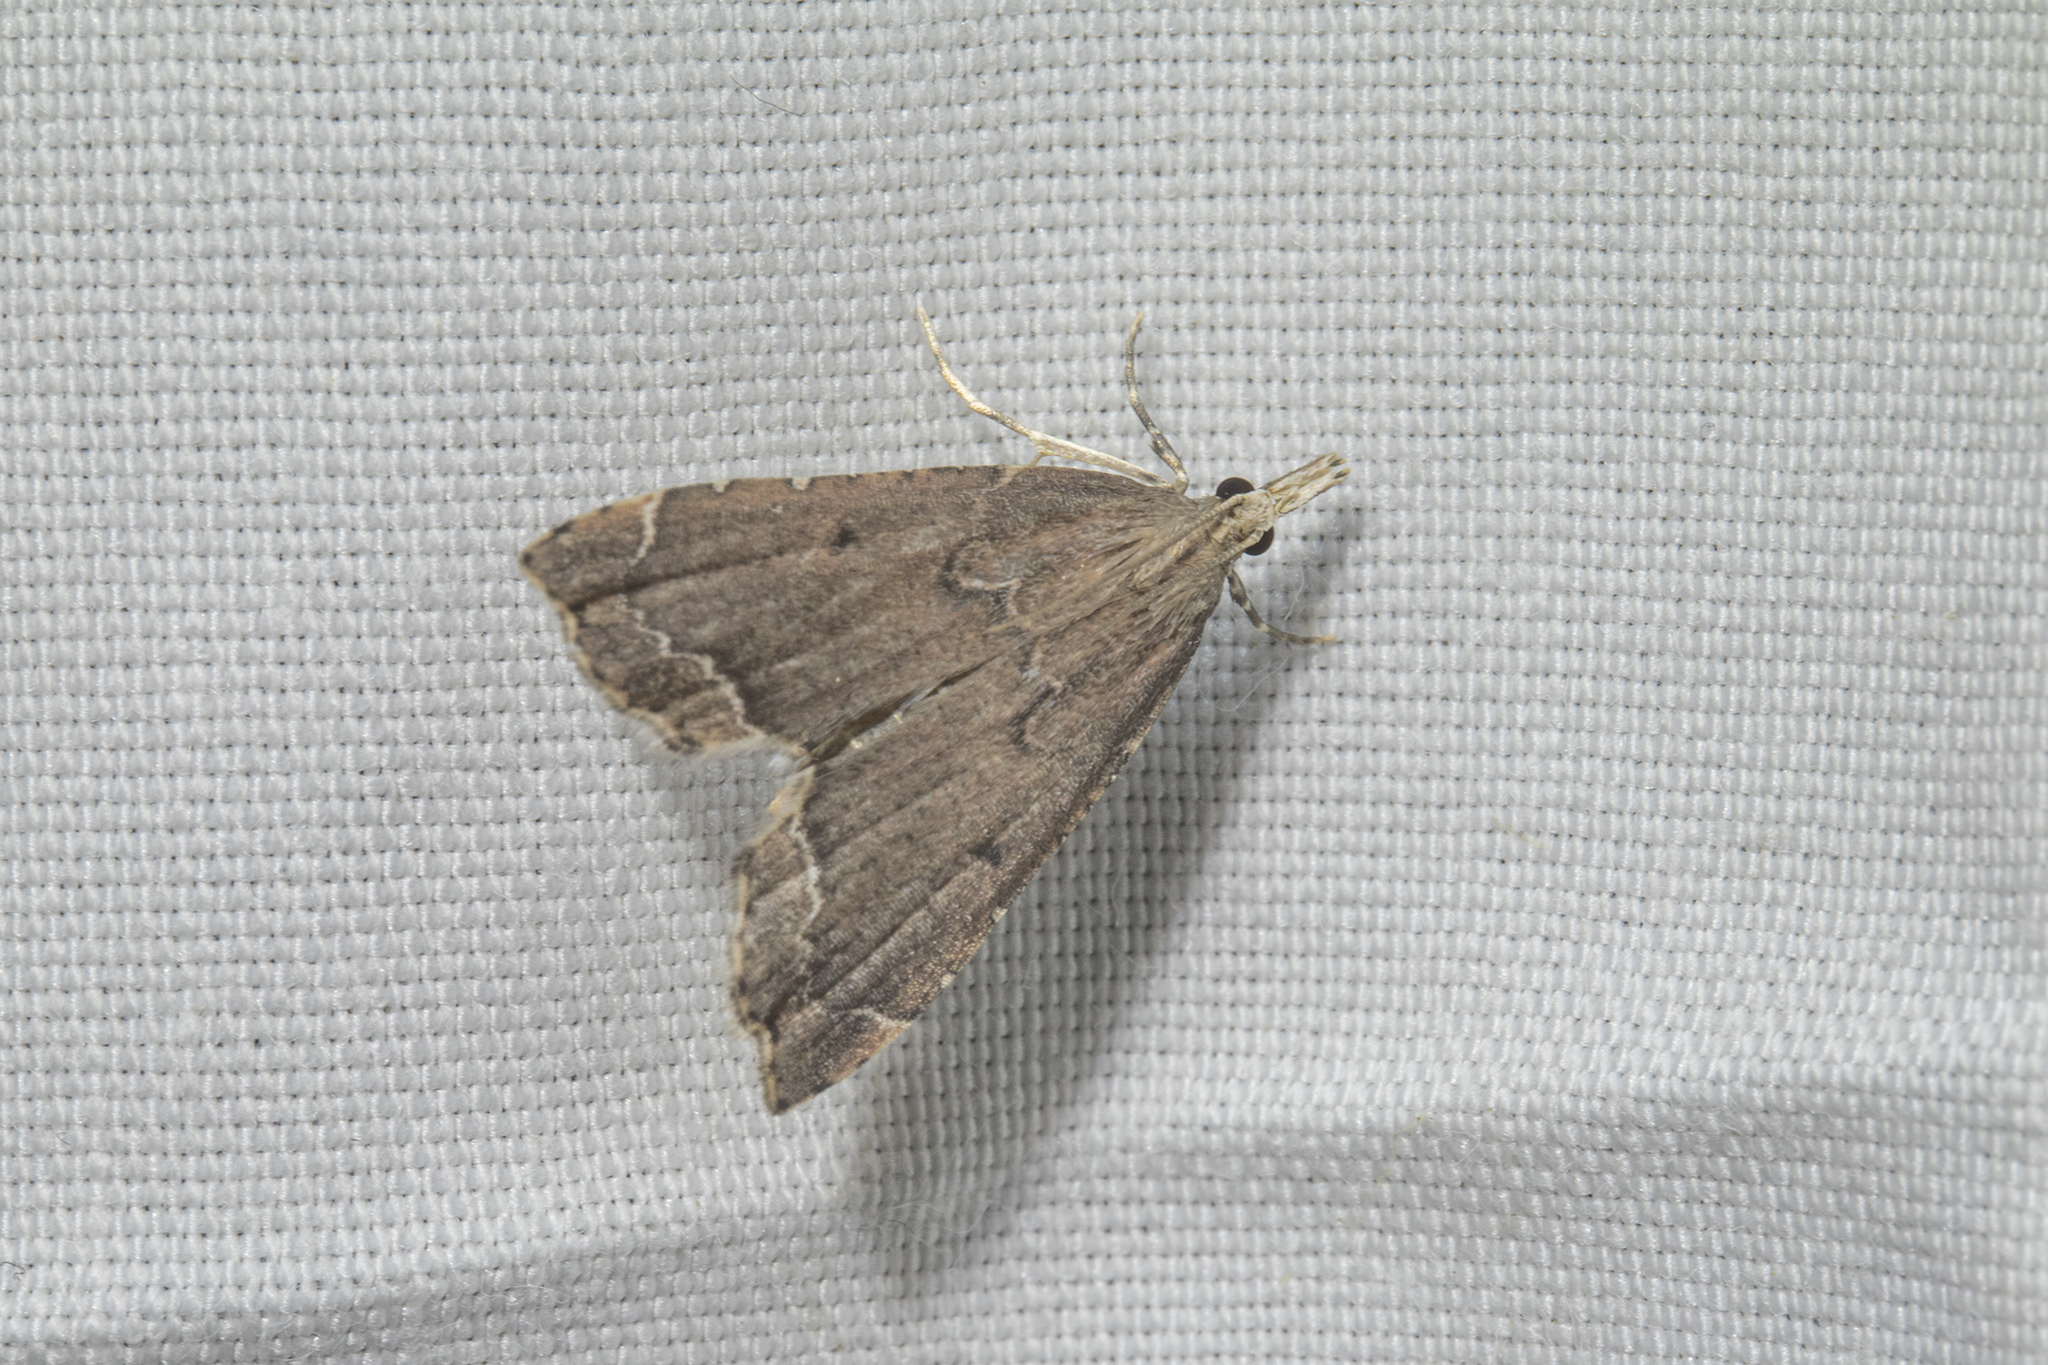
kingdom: Animalia
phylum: Arthropoda
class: Insecta
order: Lepidoptera
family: Crambidae
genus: Diplopseustis
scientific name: Diplopseustis perieresalis
